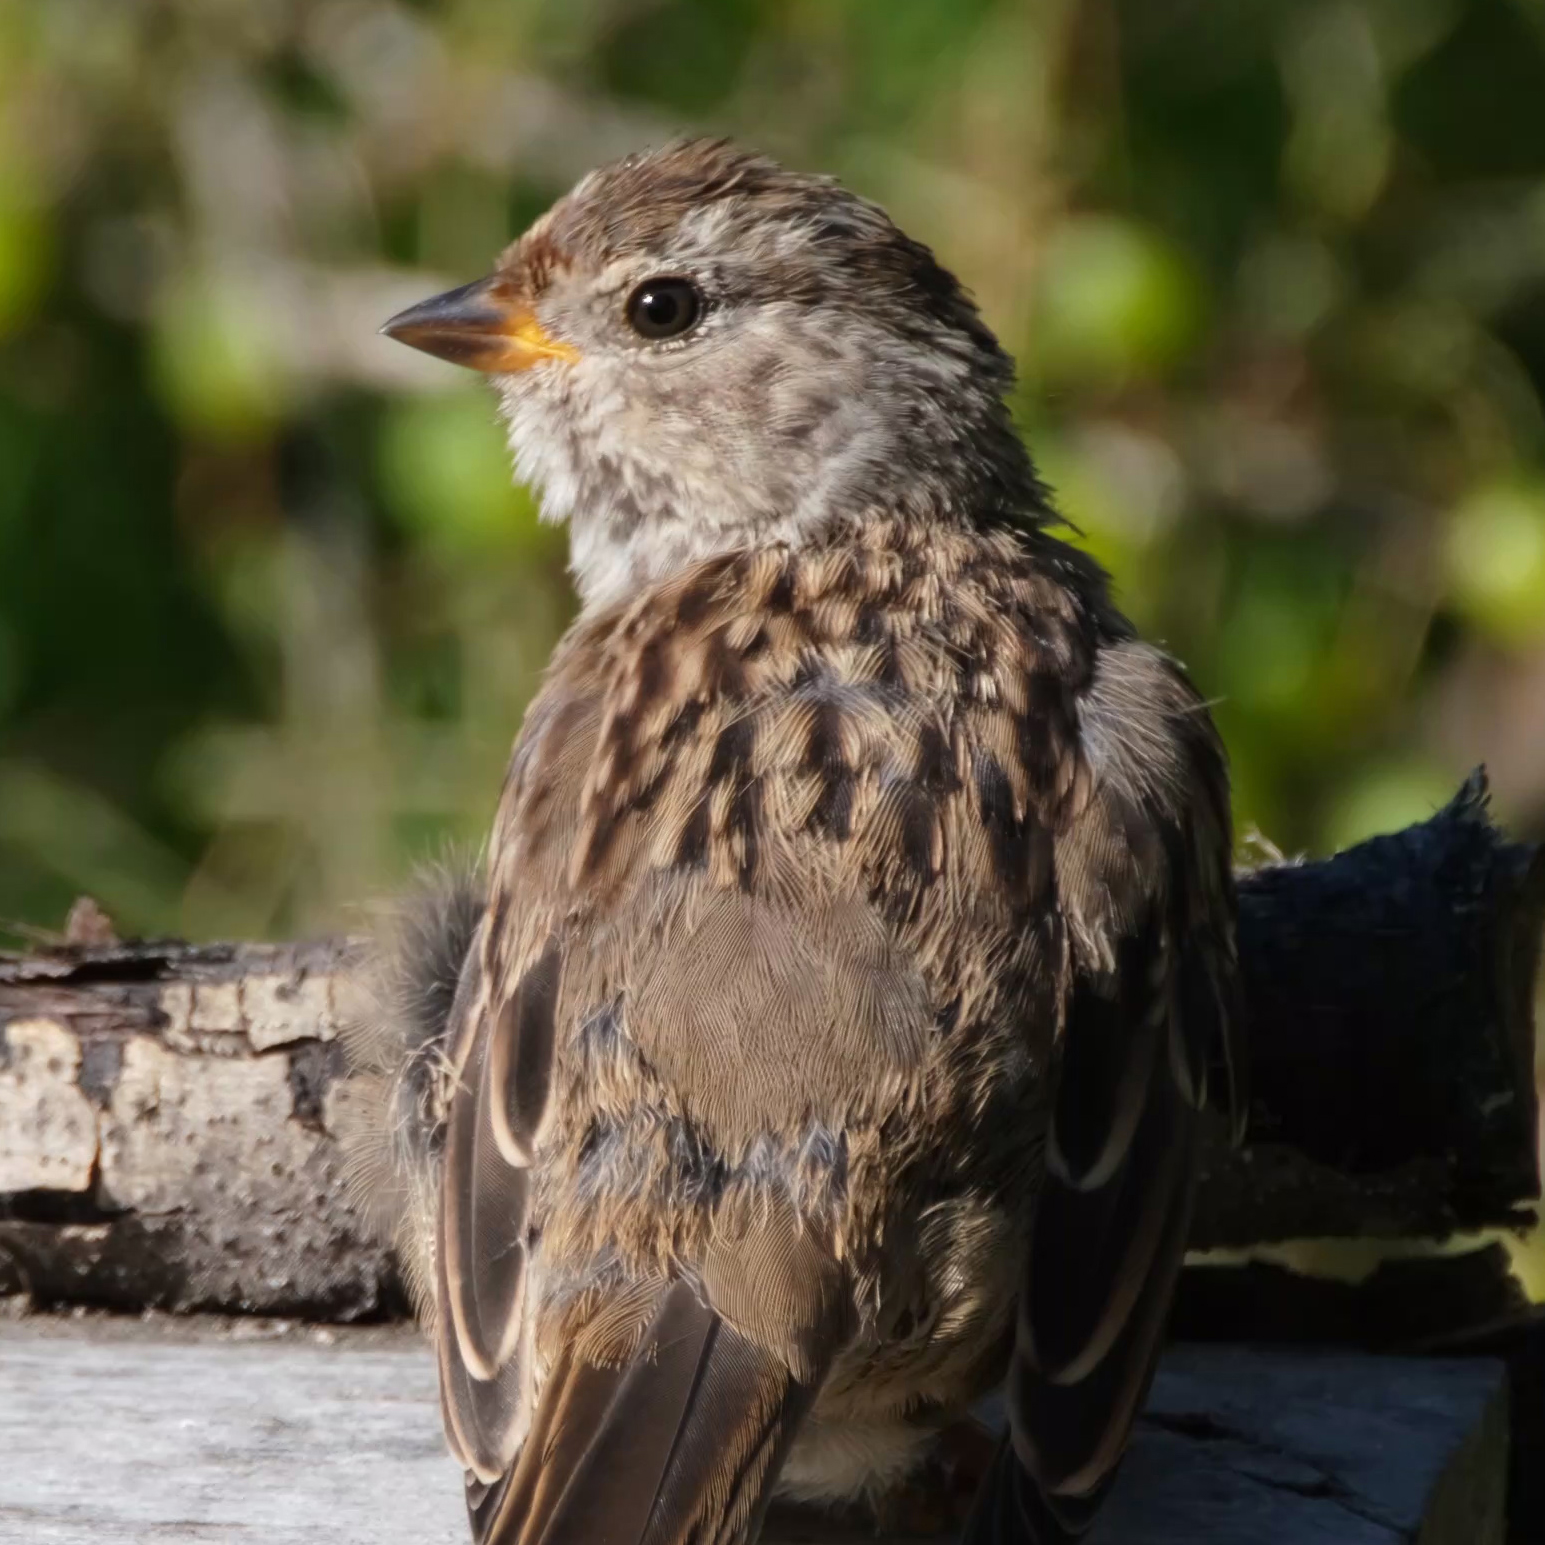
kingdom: Animalia
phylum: Chordata
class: Aves
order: Passeriformes
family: Passerellidae
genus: Zonotrichia
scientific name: Zonotrichia leucophrys
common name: White-crowned sparrow
